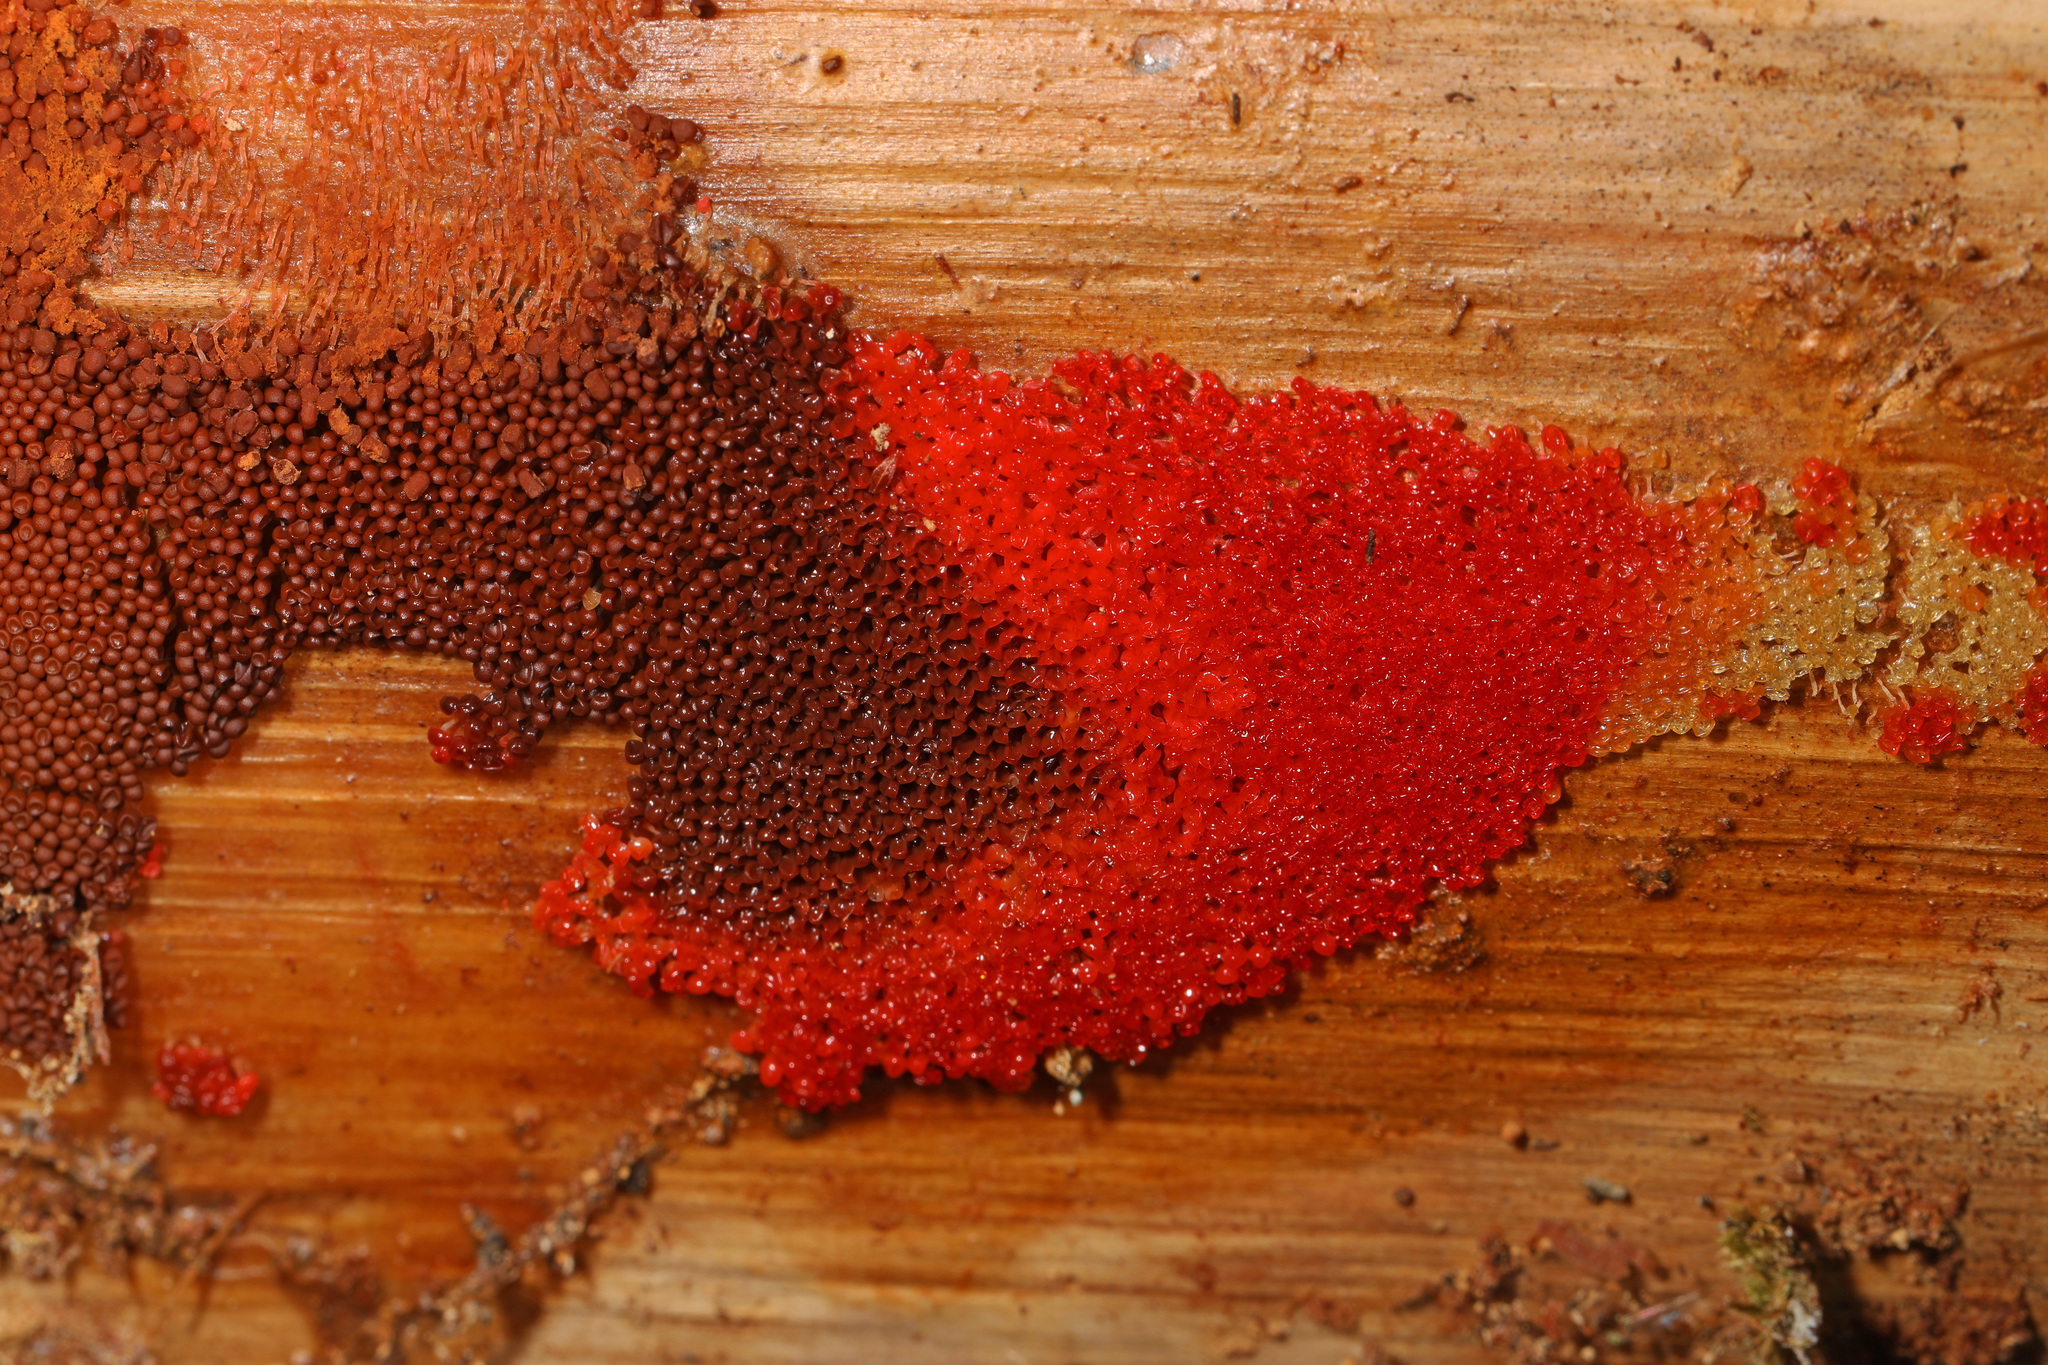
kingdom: Protozoa
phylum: Mycetozoa
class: Myxomycetes
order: Cribrariales
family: Tubiferaceae
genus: Tubifera
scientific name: Tubifera ferruginosa
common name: Red raspberry slime mold
